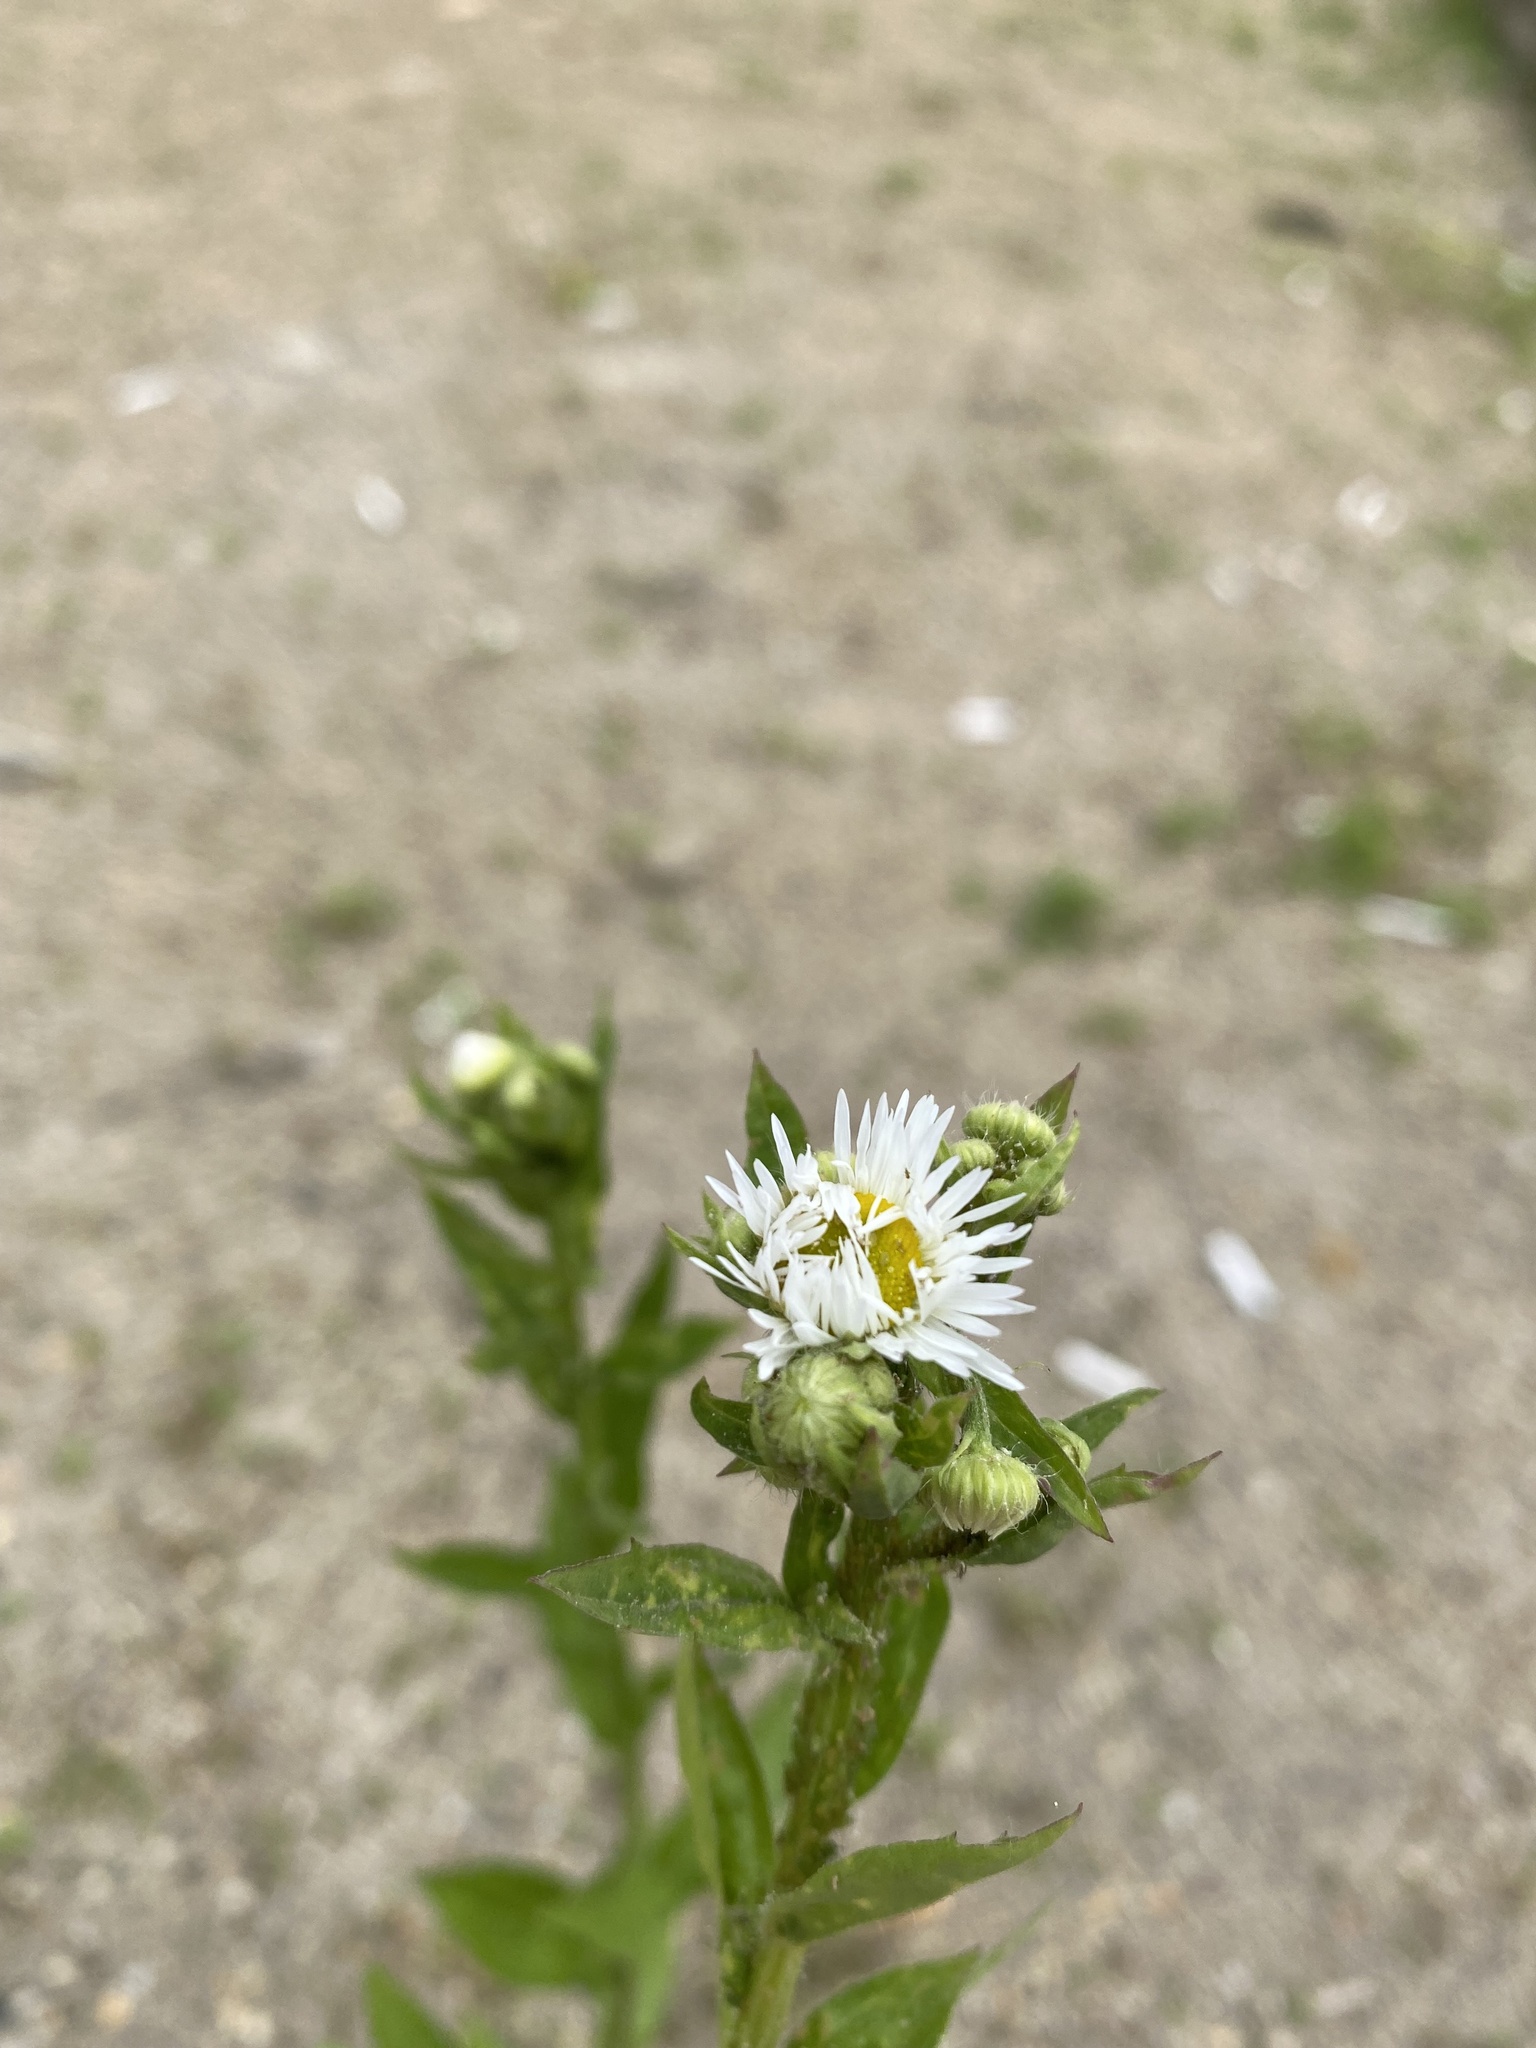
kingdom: Plantae
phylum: Tracheophyta
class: Magnoliopsida
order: Asterales
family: Asteraceae
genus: Erigeron
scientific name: Erigeron annuus
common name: Tall fleabane
